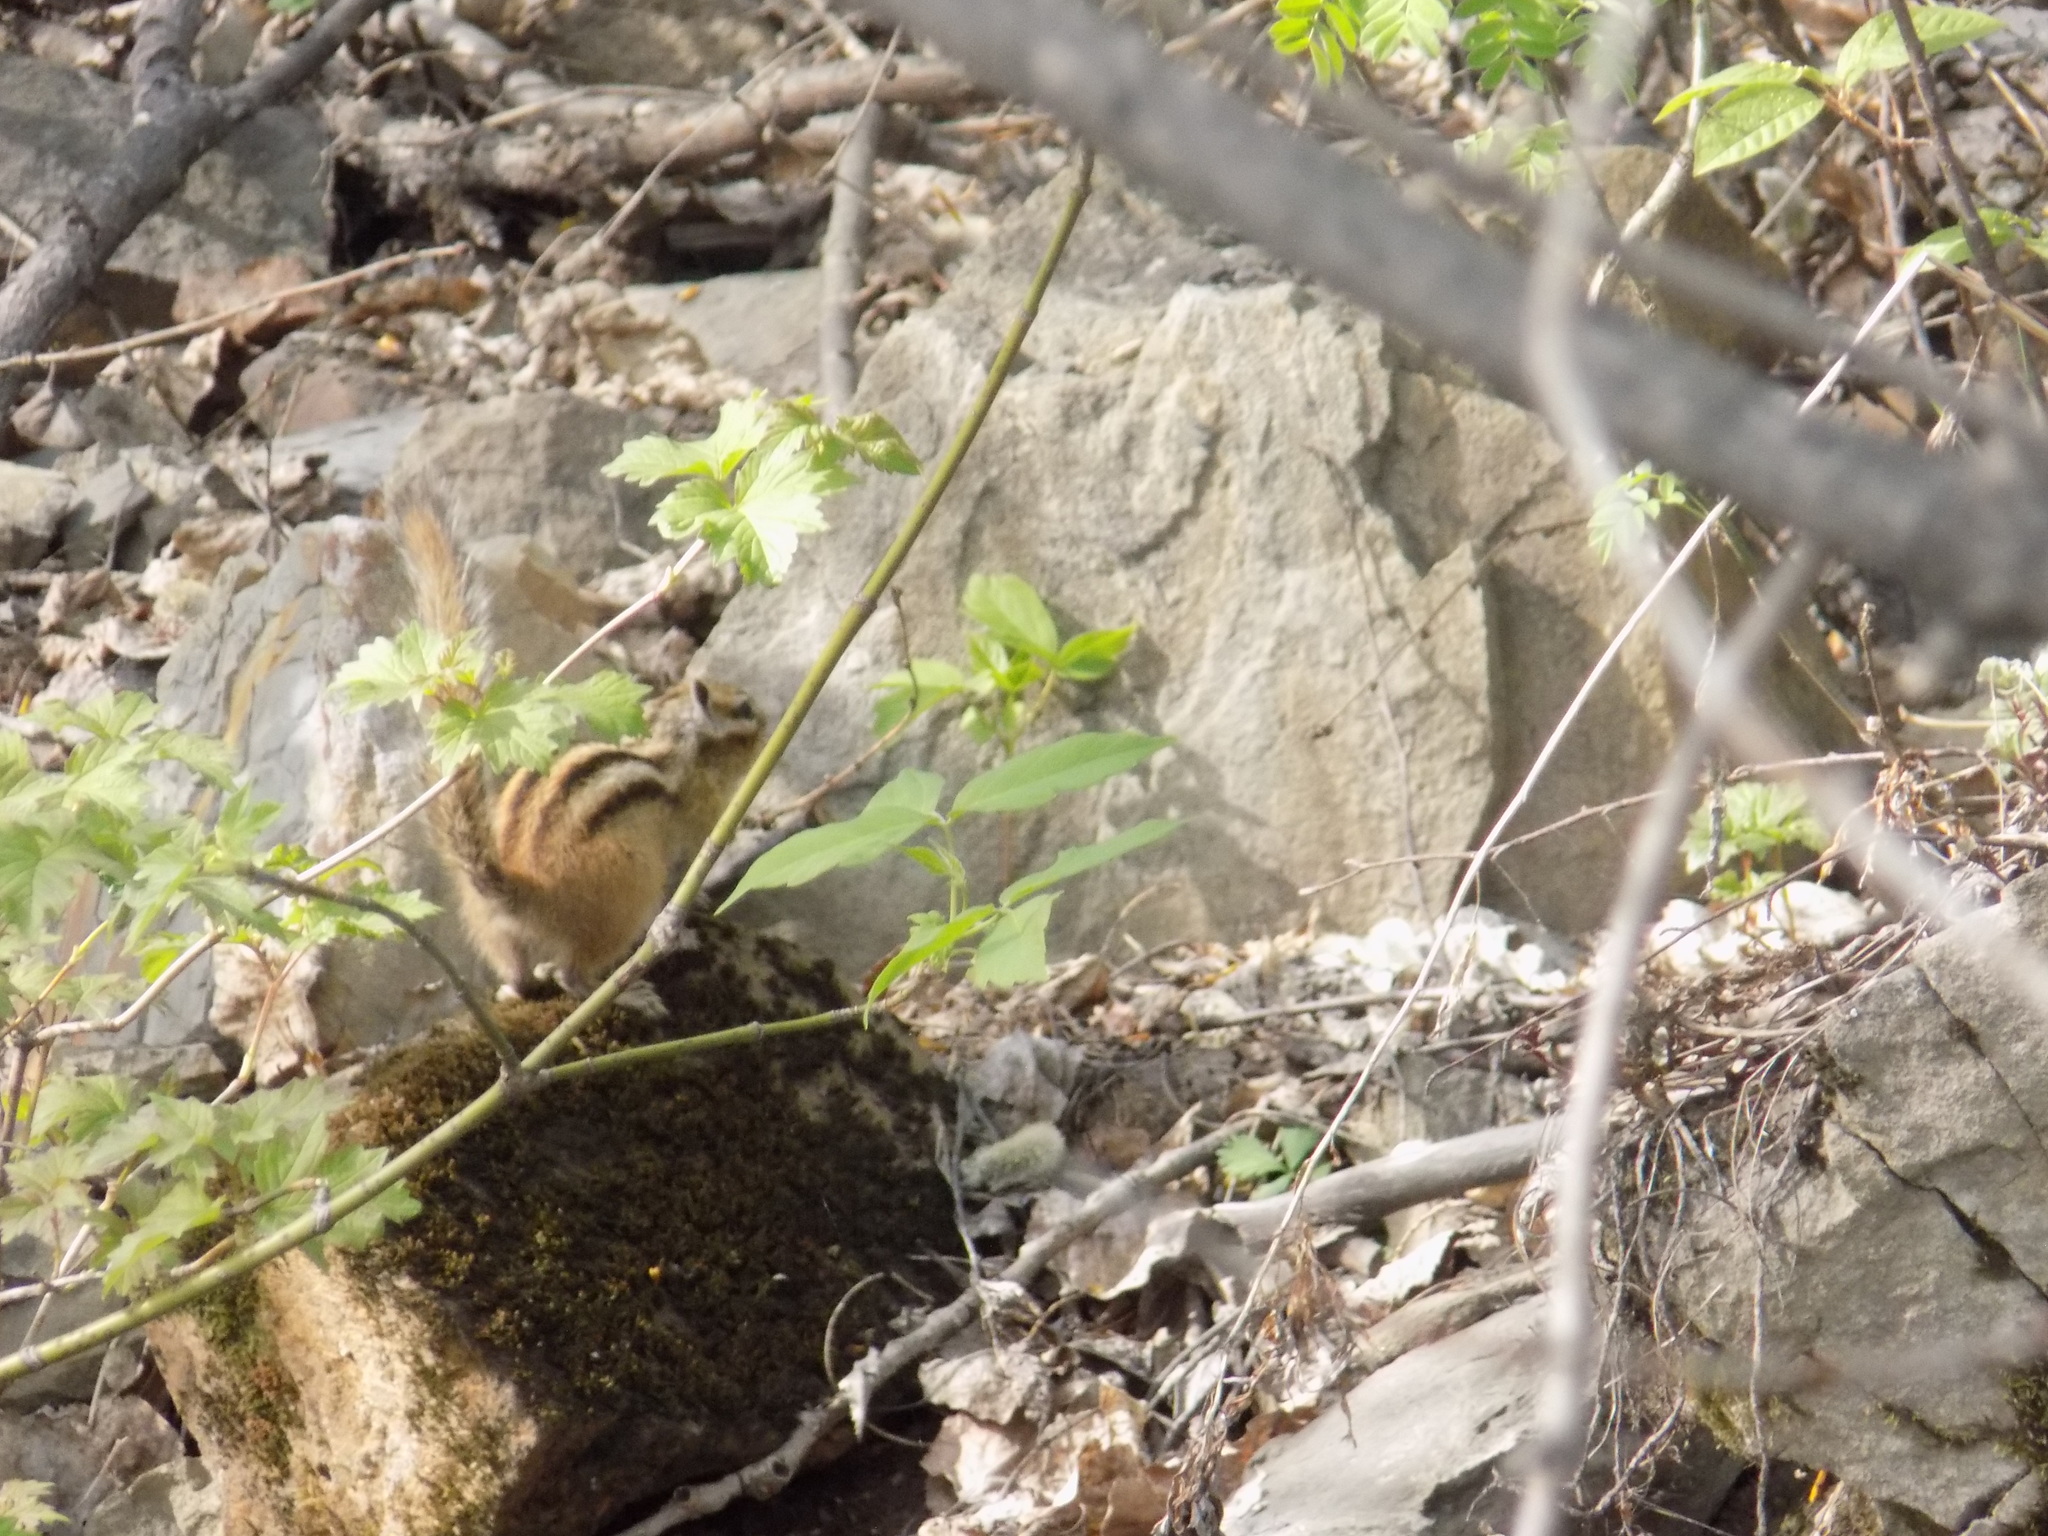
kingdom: Animalia
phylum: Chordata
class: Mammalia
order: Rodentia
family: Sciuridae
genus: Tamias
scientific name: Tamias sibiricus
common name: Siberian chipmunk
